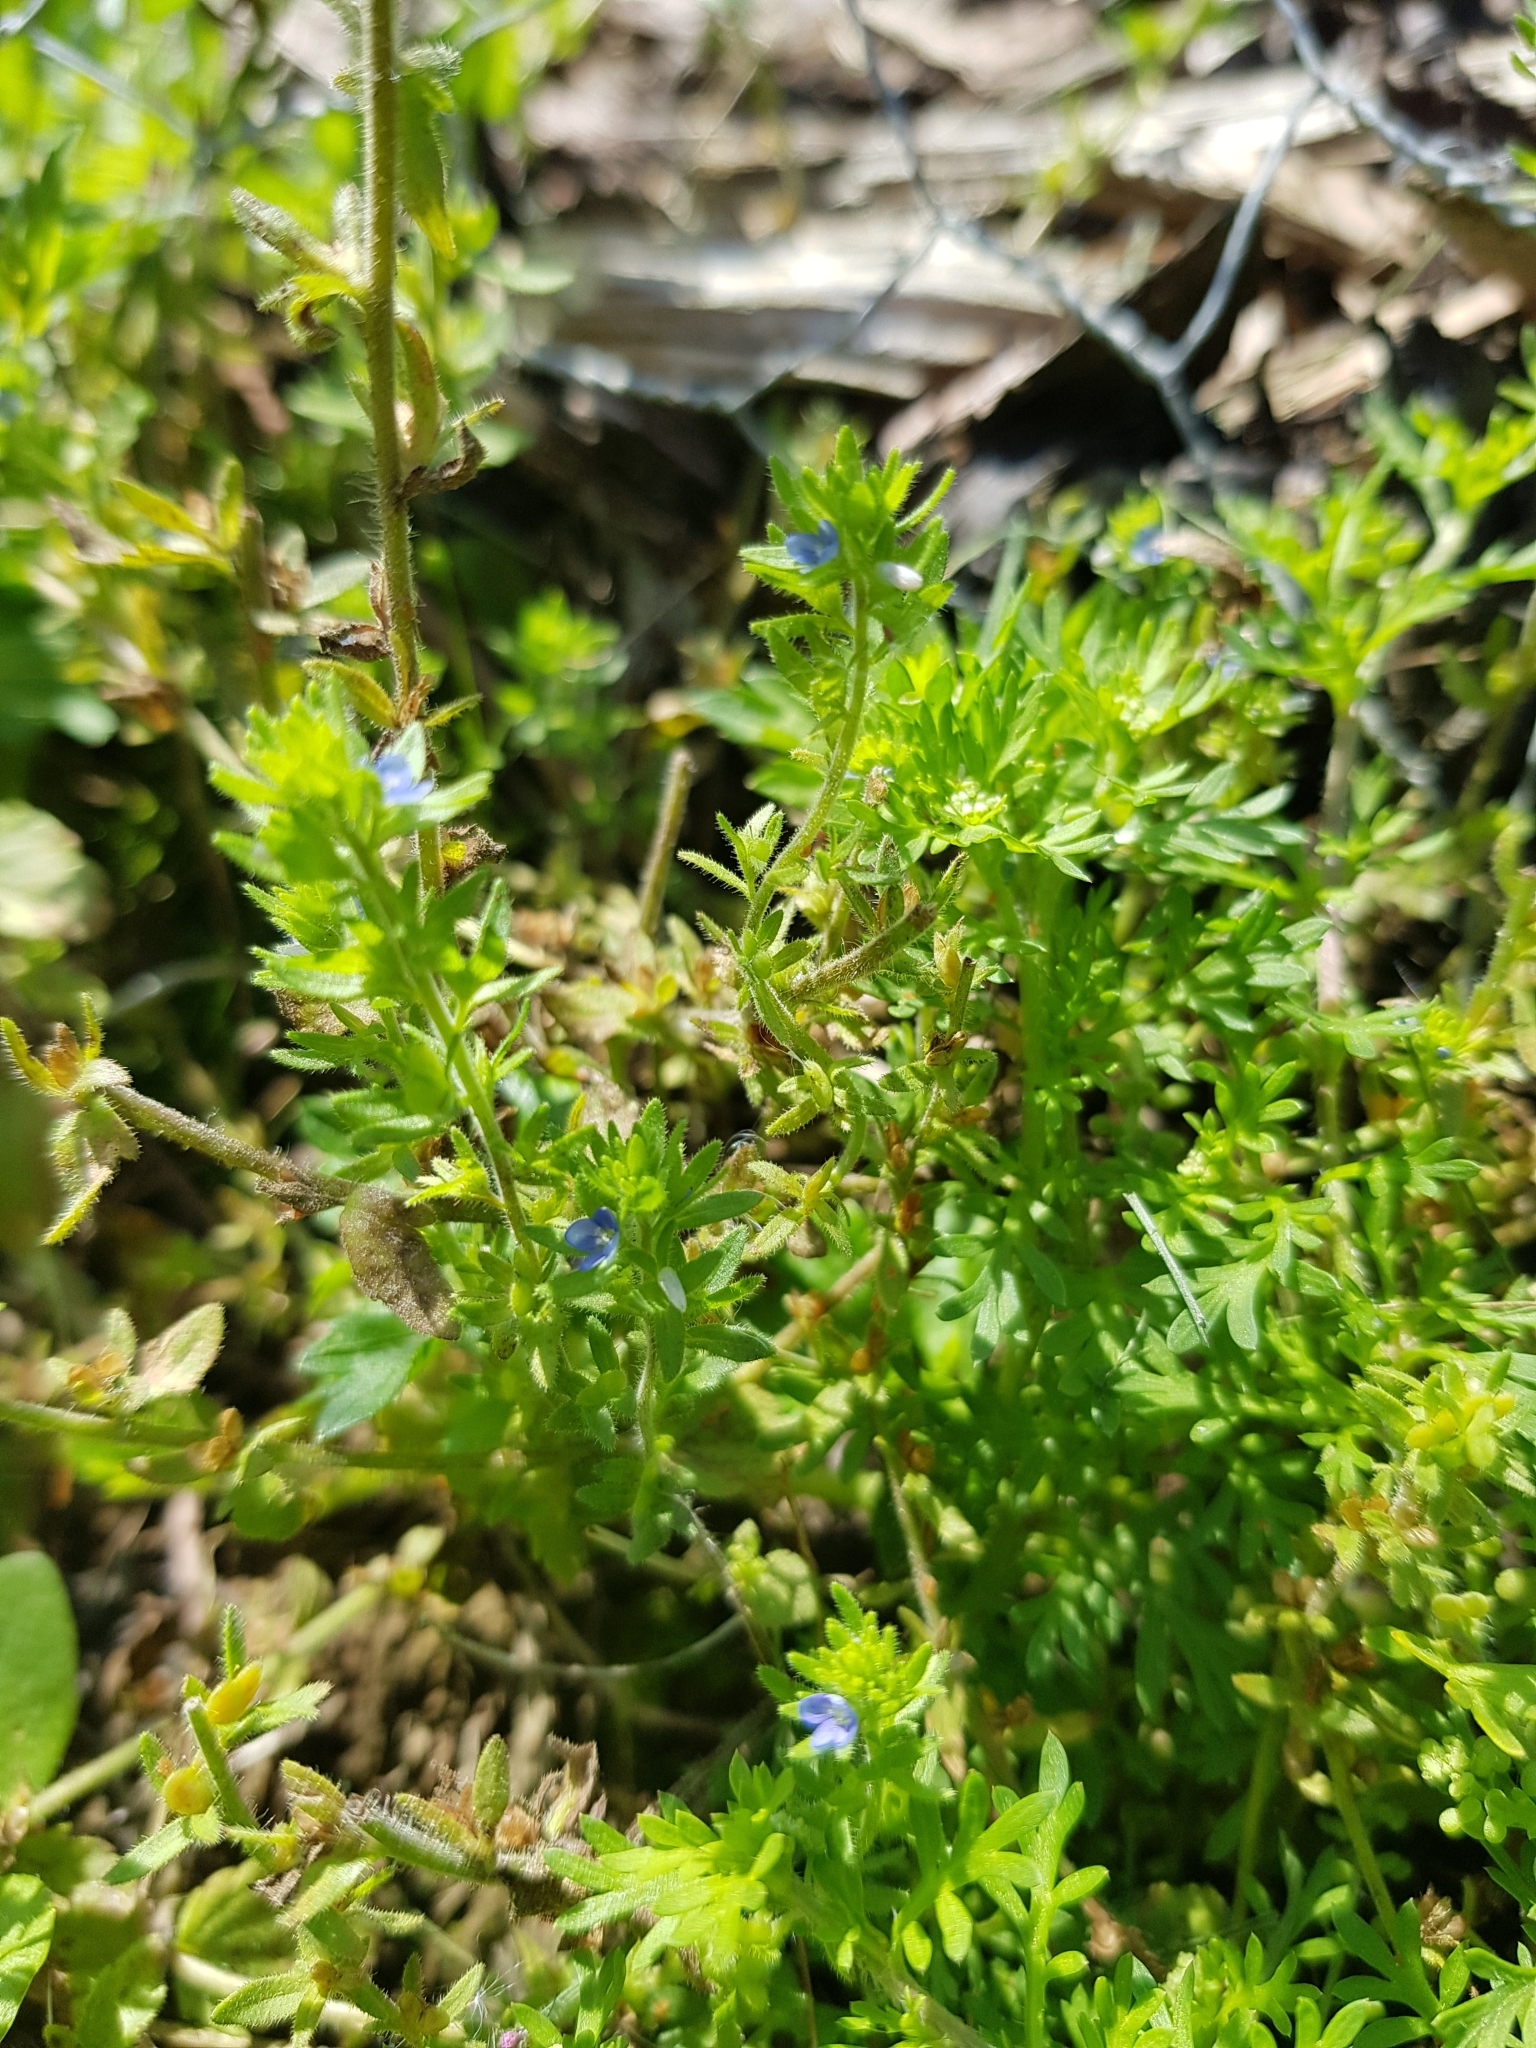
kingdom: Plantae
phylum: Tracheophyta
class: Magnoliopsida
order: Lamiales
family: Plantaginaceae
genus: Veronica
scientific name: Veronica arvensis
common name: Corn speedwell
